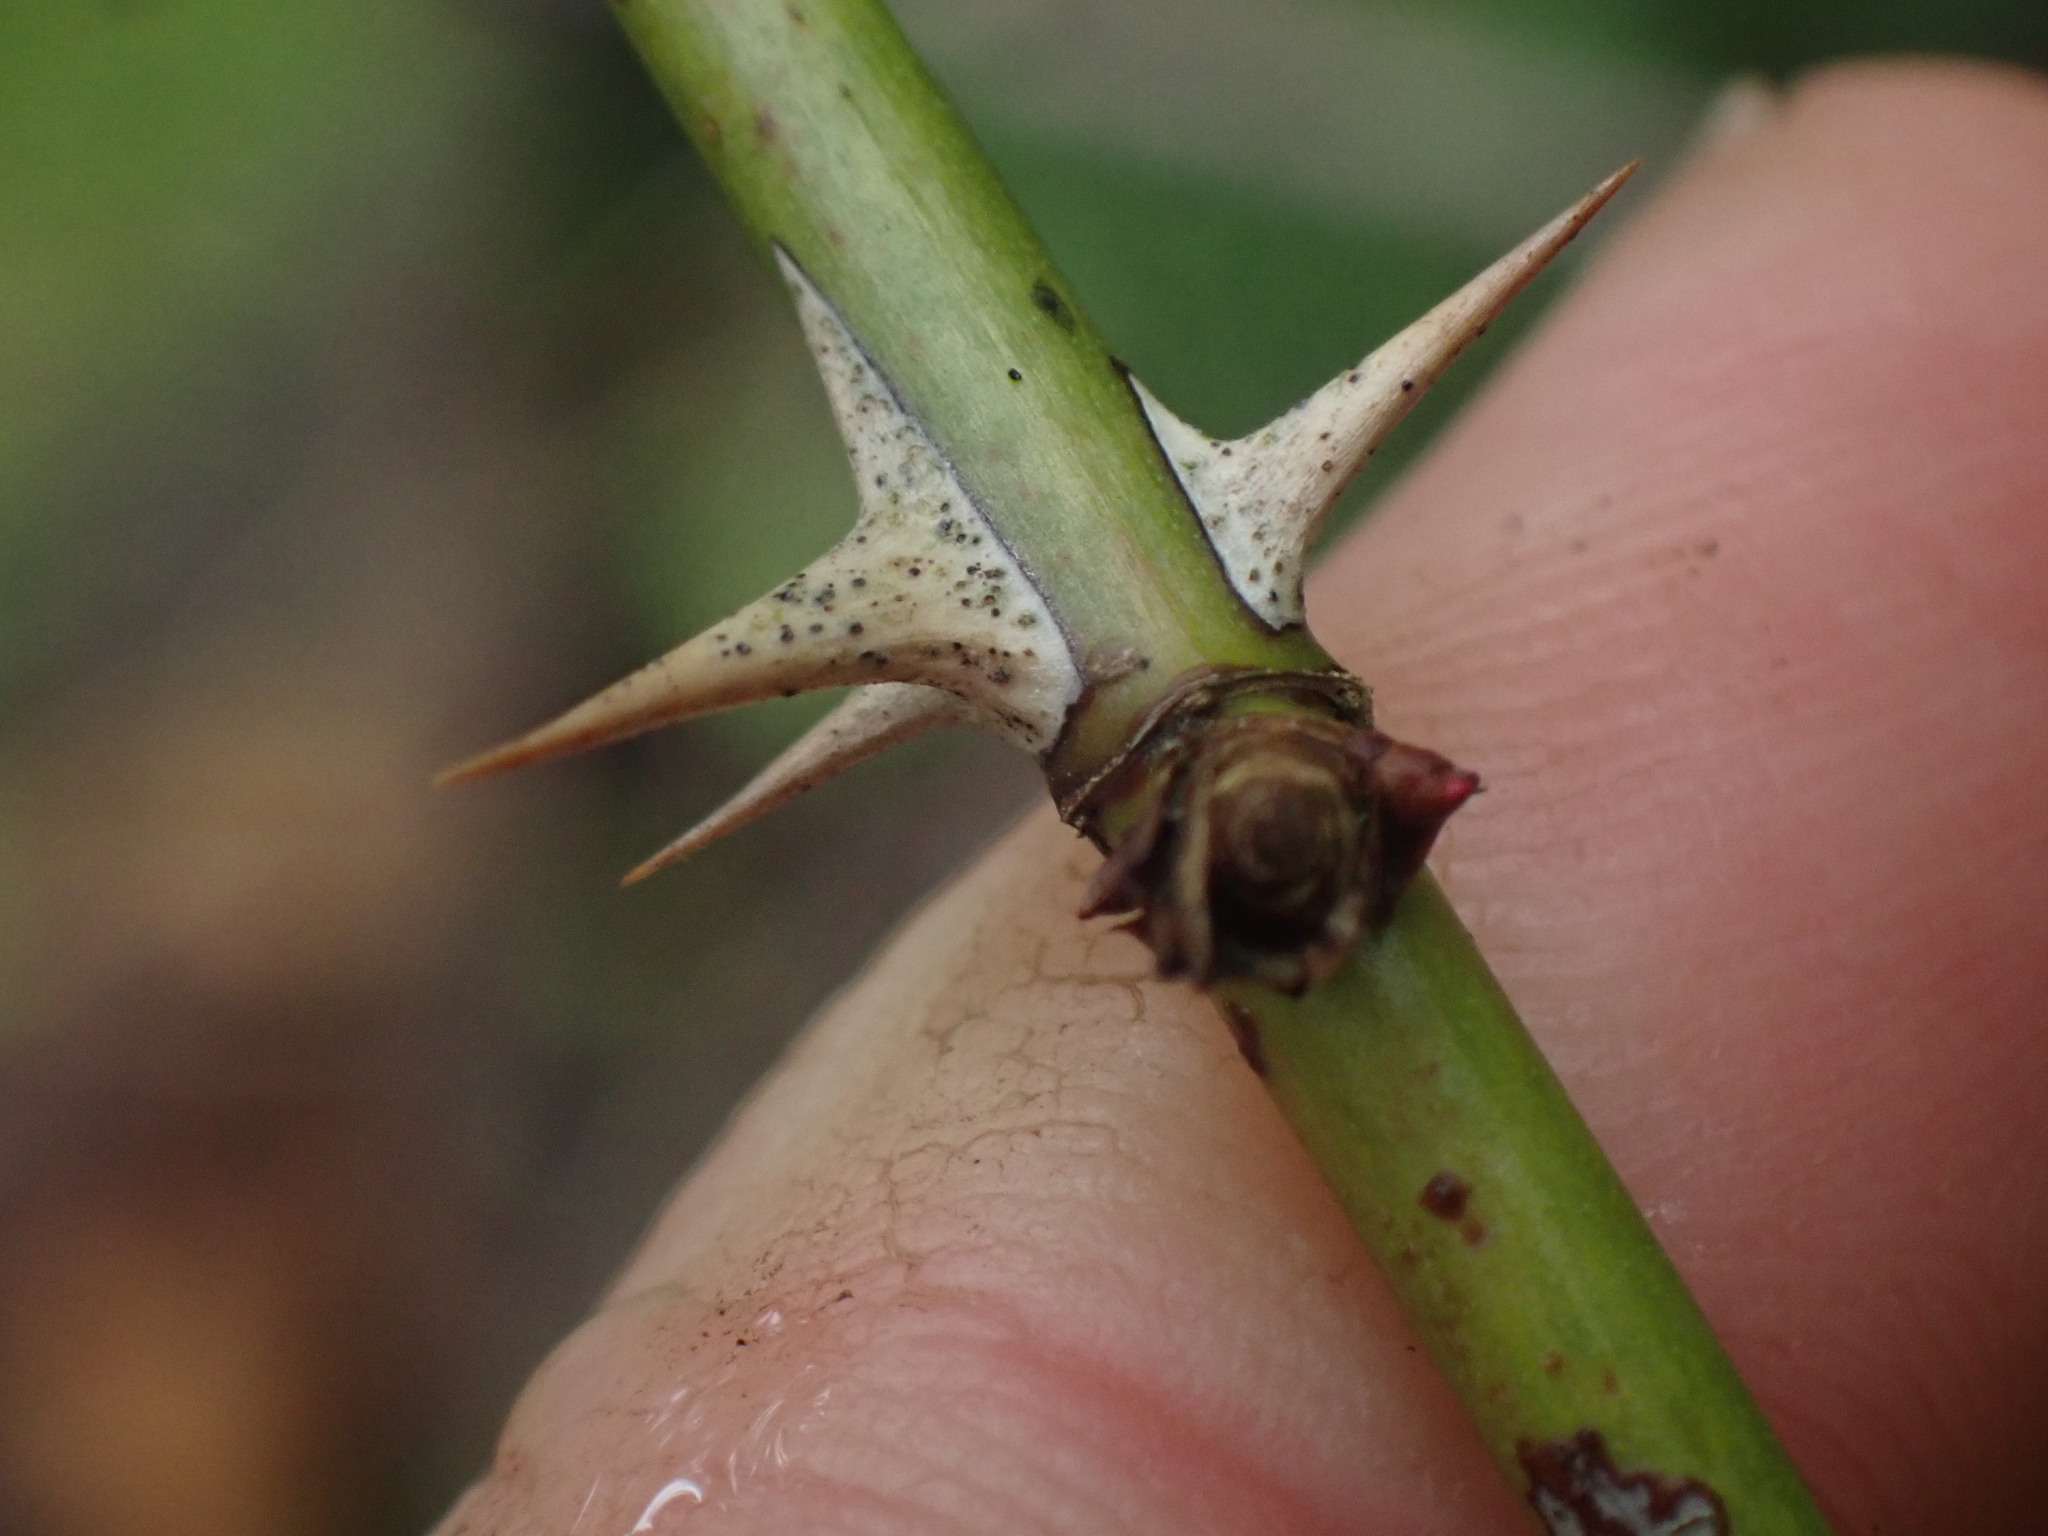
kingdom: Plantae
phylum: Tracheophyta
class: Magnoliopsida
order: Rosales
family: Rosaceae
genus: Rosa
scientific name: Rosa nutkana
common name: Nootka rose
